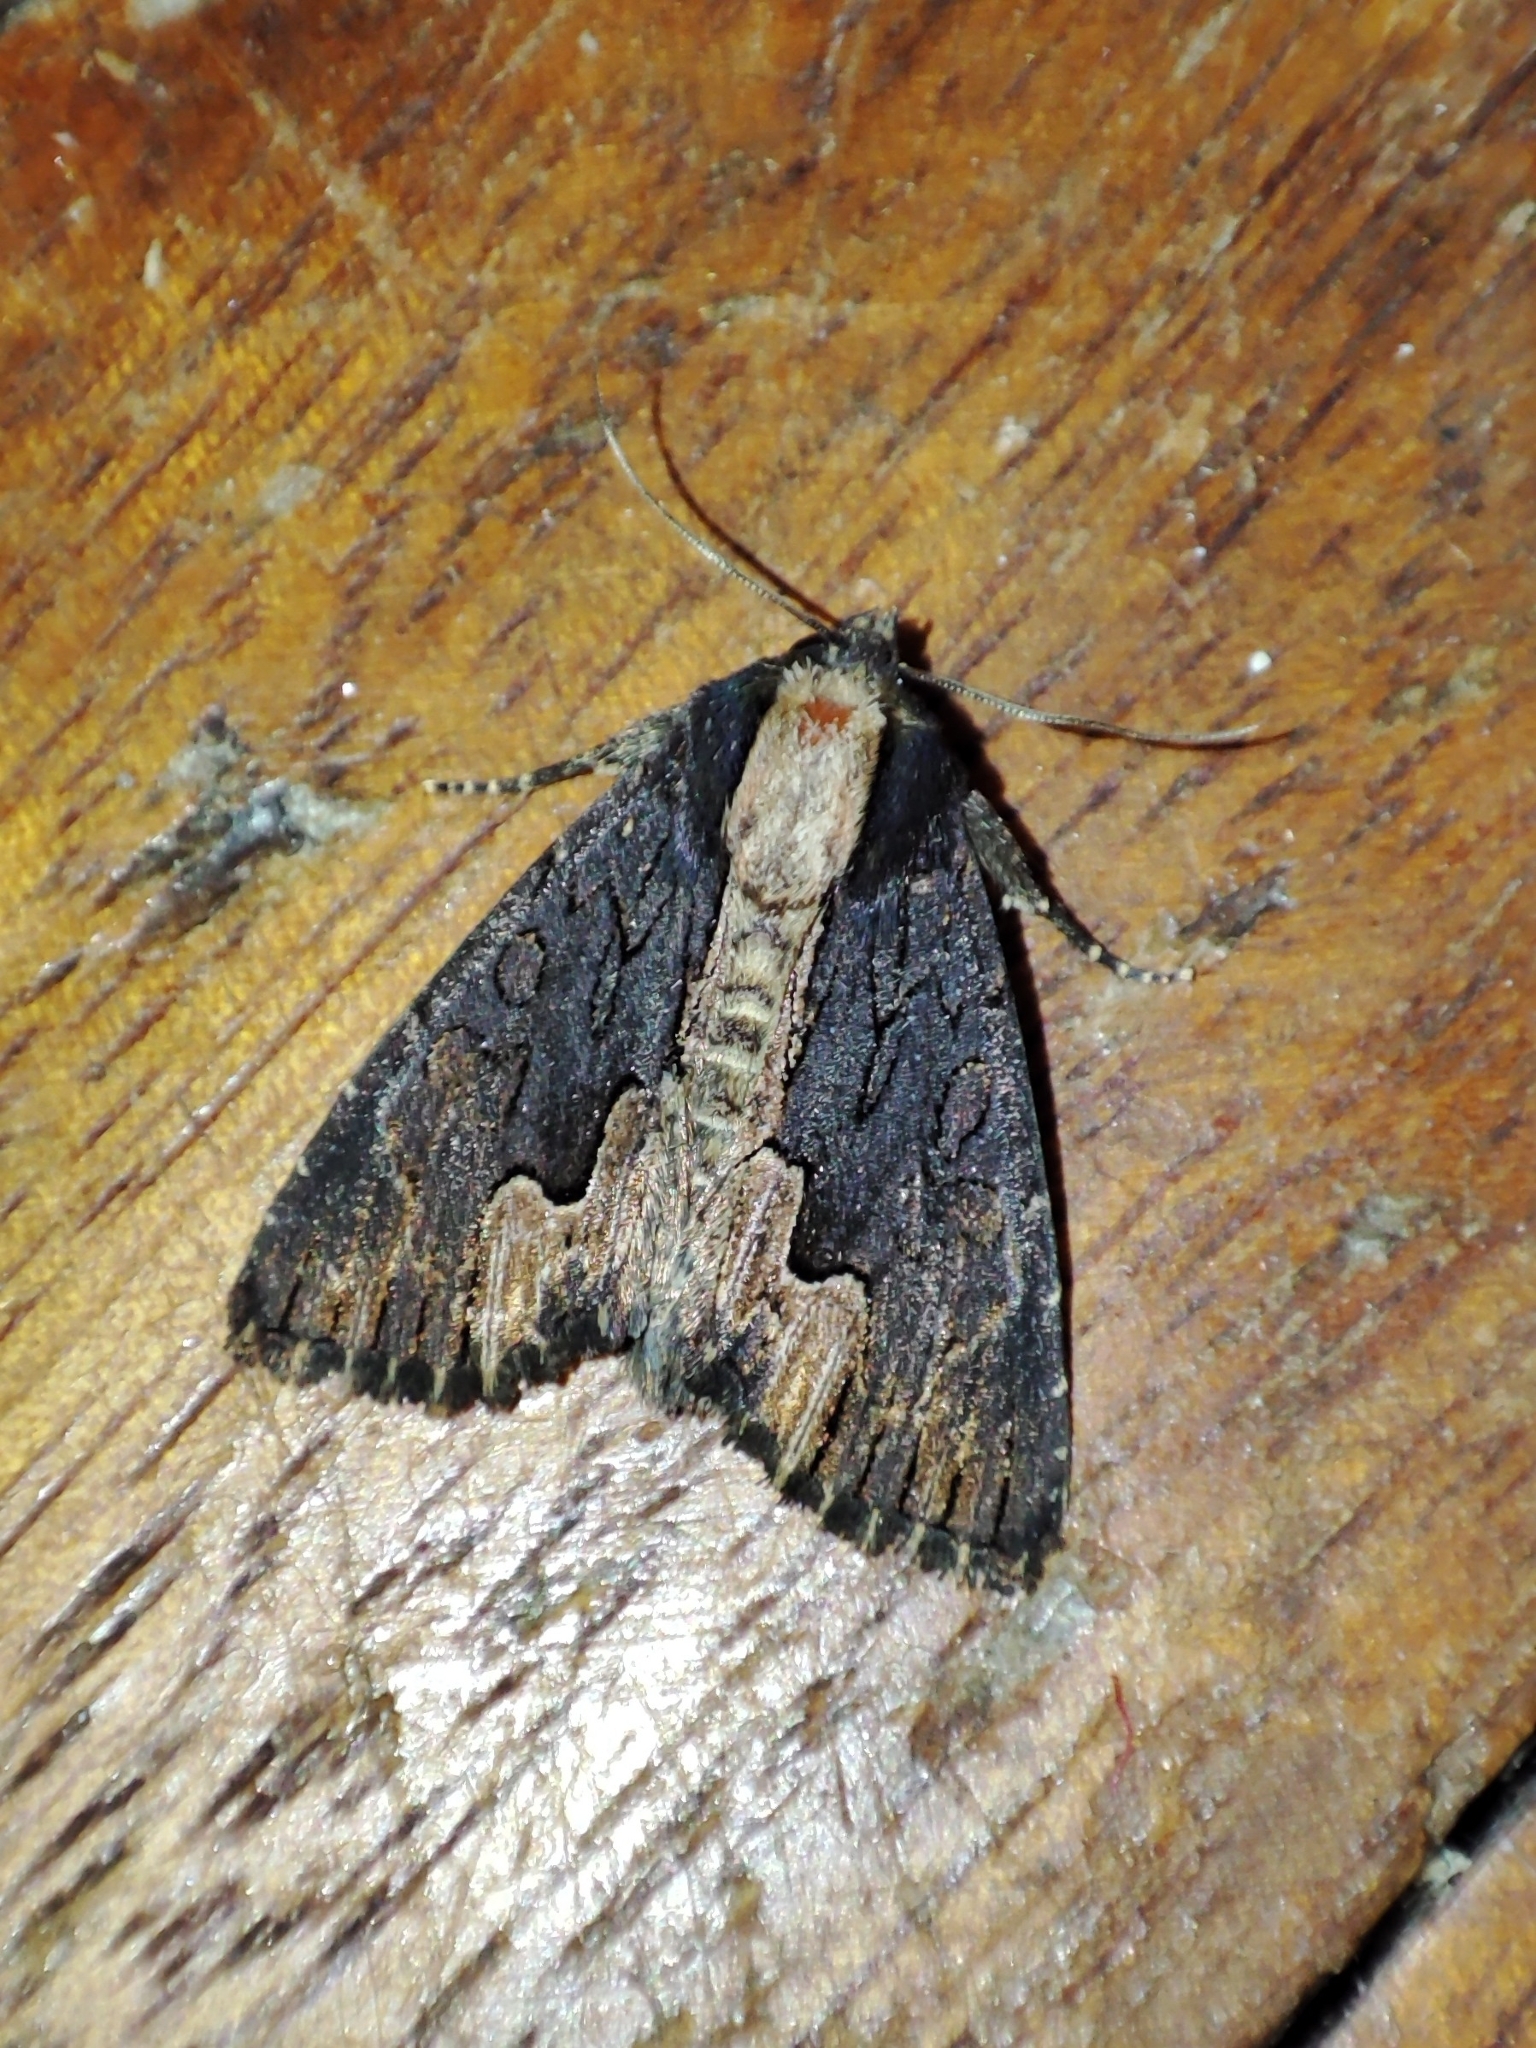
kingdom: Animalia
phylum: Arthropoda
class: Insecta
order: Lepidoptera
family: Noctuidae
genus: Dypterygia
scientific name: Dypterygia scabriuscula
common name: Bird's wing
